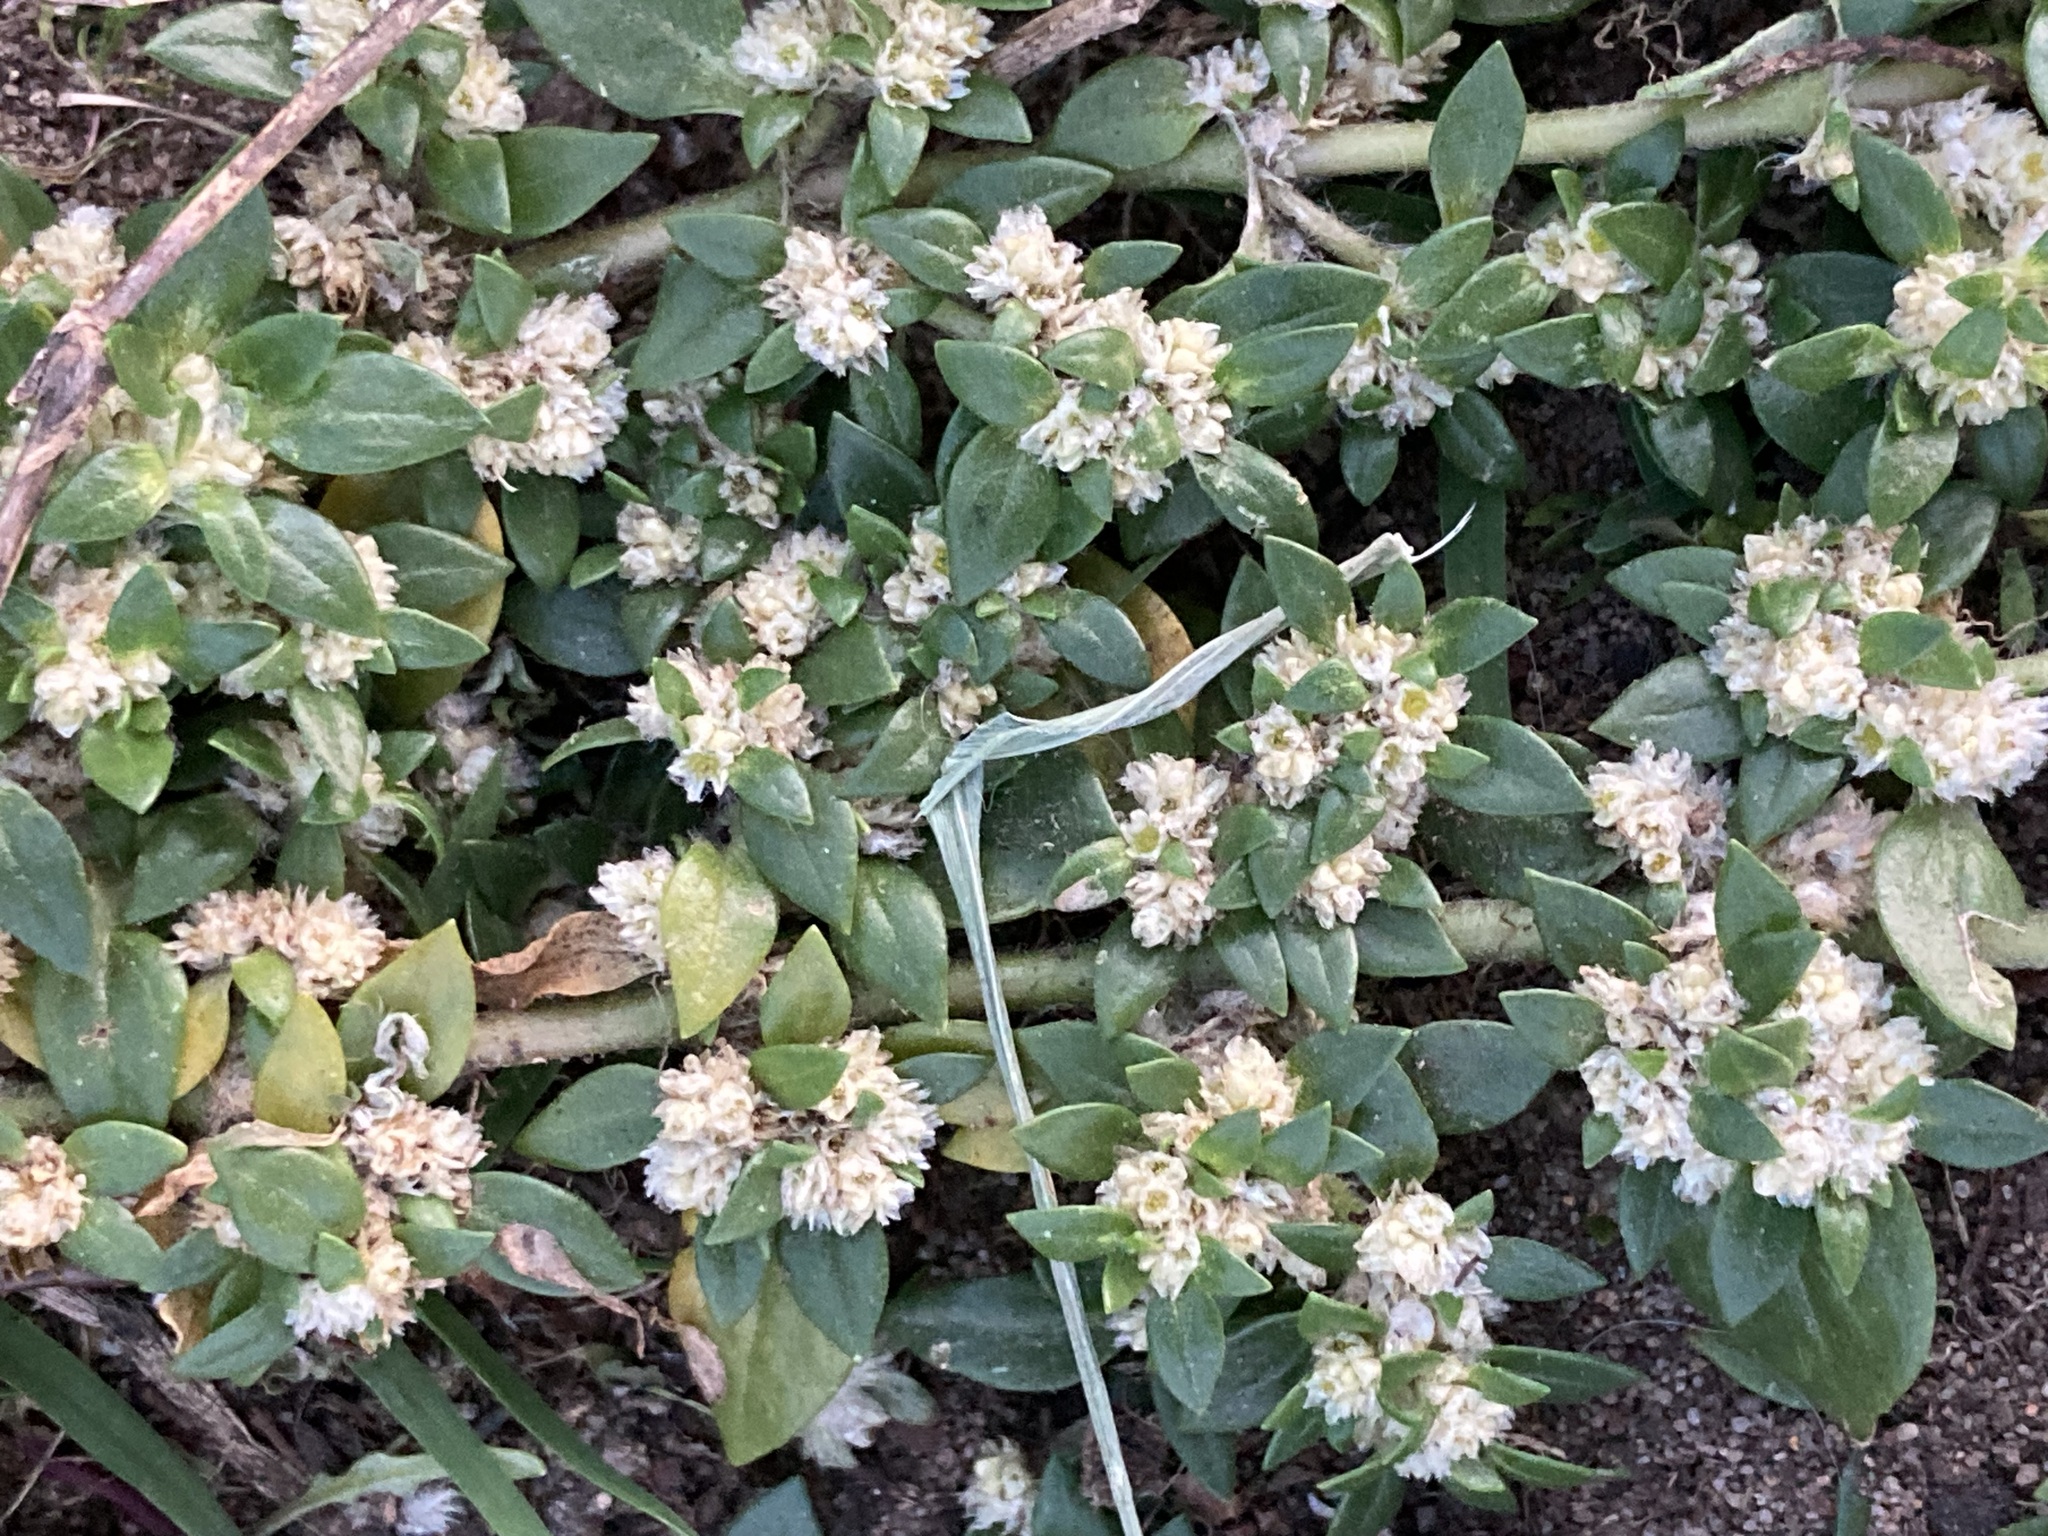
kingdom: Plantae
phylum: Tracheophyta
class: Magnoliopsida
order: Caryophyllales
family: Amaranthaceae
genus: Guilleminea
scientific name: Guilleminea densa
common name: Small matweed
